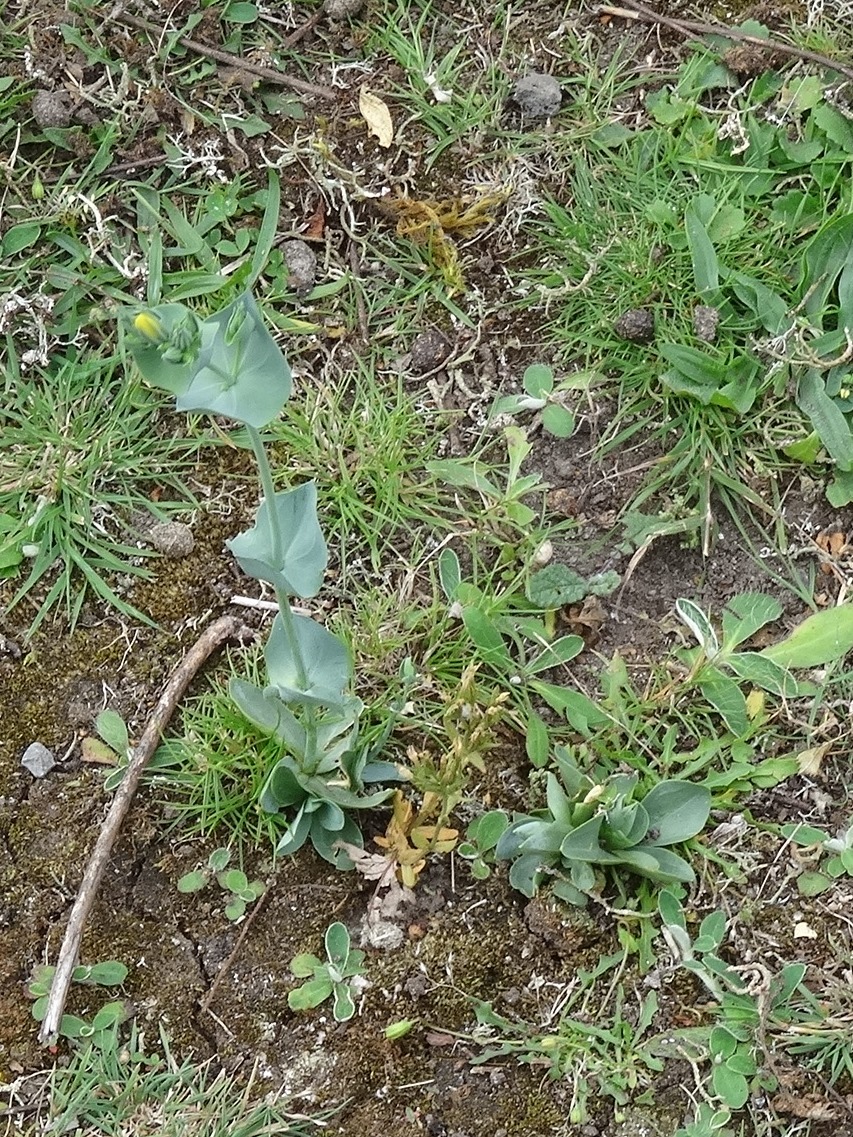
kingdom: Plantae
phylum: Tracheophyta
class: Magnoliopsida
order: Gentianales
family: Gentianaceae
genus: Blackstonia
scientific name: Blackstonia perfoliata
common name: Yellow-wort
